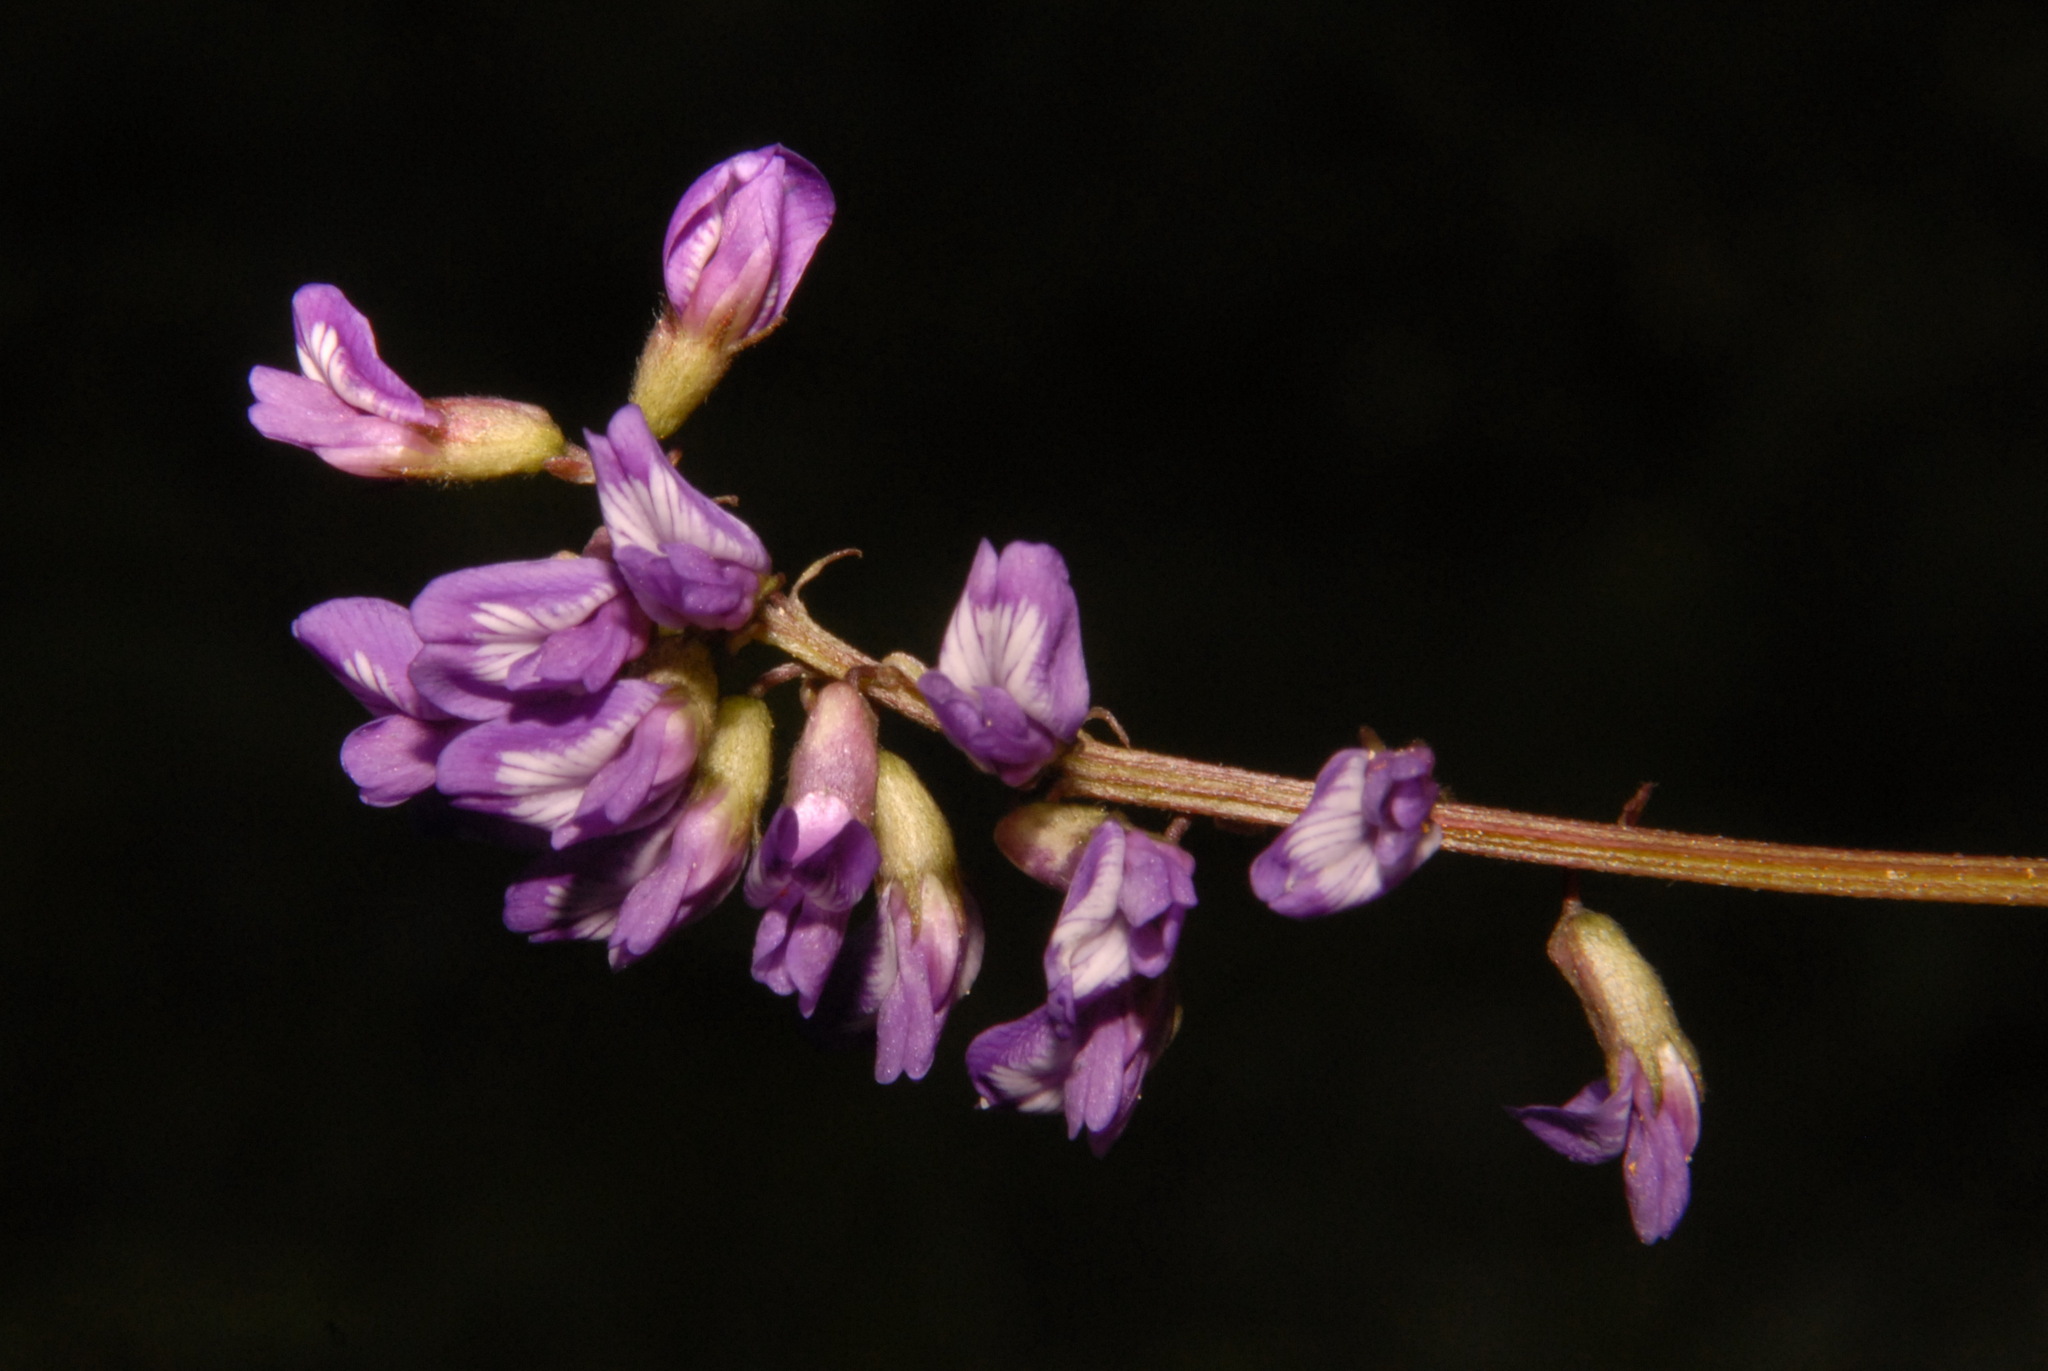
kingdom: Plantae
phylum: Tracheophyta
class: Magnoliopsida
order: Fabales
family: Fabaceae
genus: Astragalus
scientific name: Astragalus robbinsii
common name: Robbins' milk-vetch
